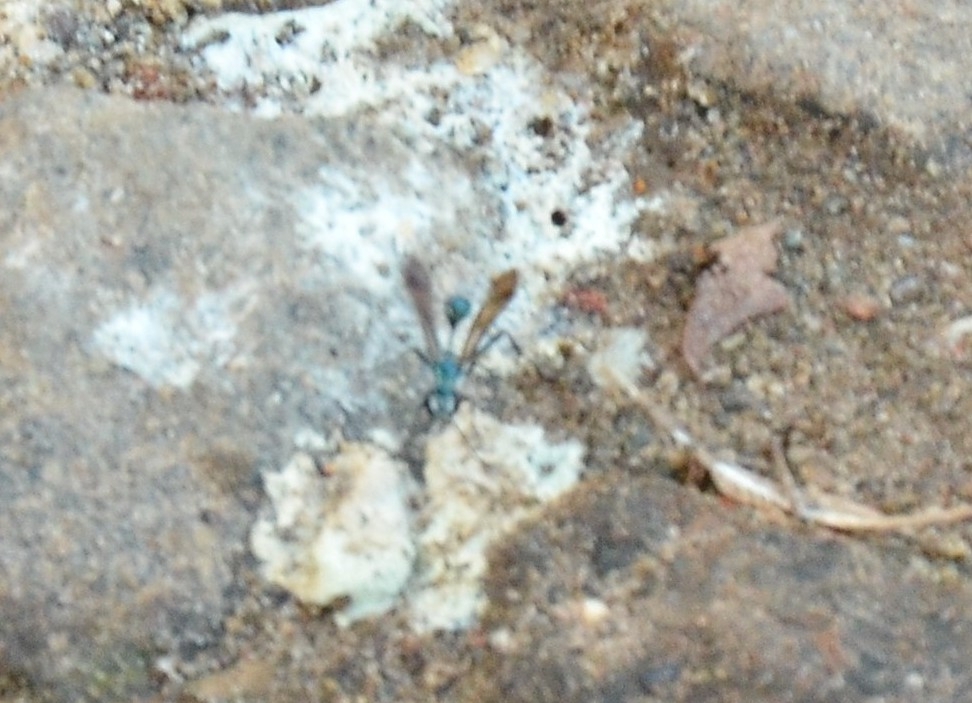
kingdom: Animalia
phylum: Arthropoda
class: Insecta
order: Hymenoptera
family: Sphecidae
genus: Chalybion
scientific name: Chalybion
